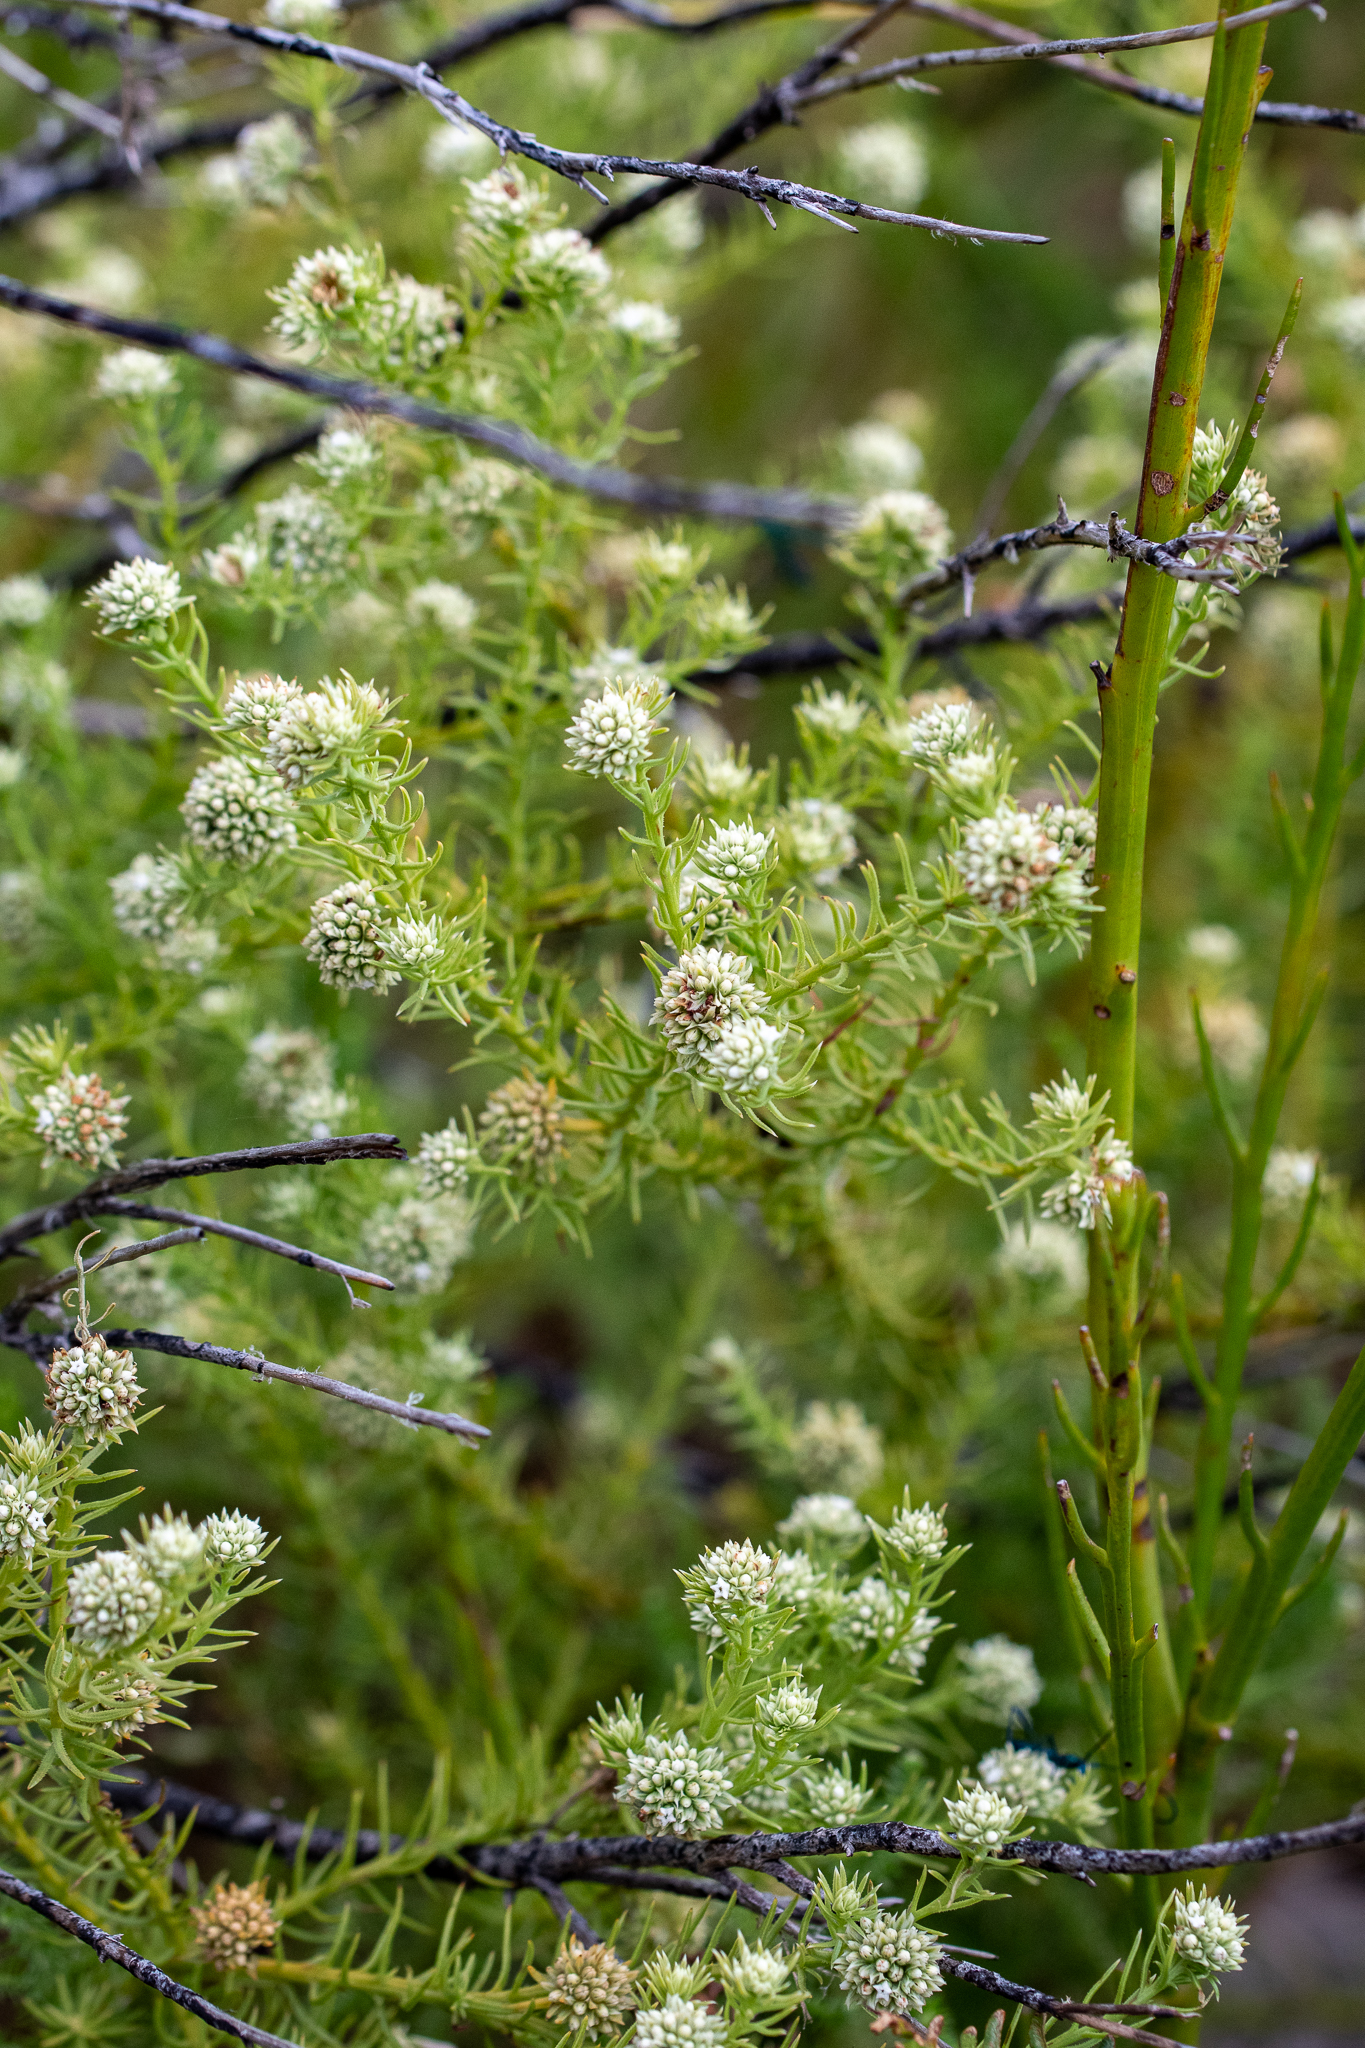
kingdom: Plantae
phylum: Tracheophyta
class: Magnoliopsida
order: Santalales
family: Thesiaceae
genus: Thesium
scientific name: Thesium capitatum
